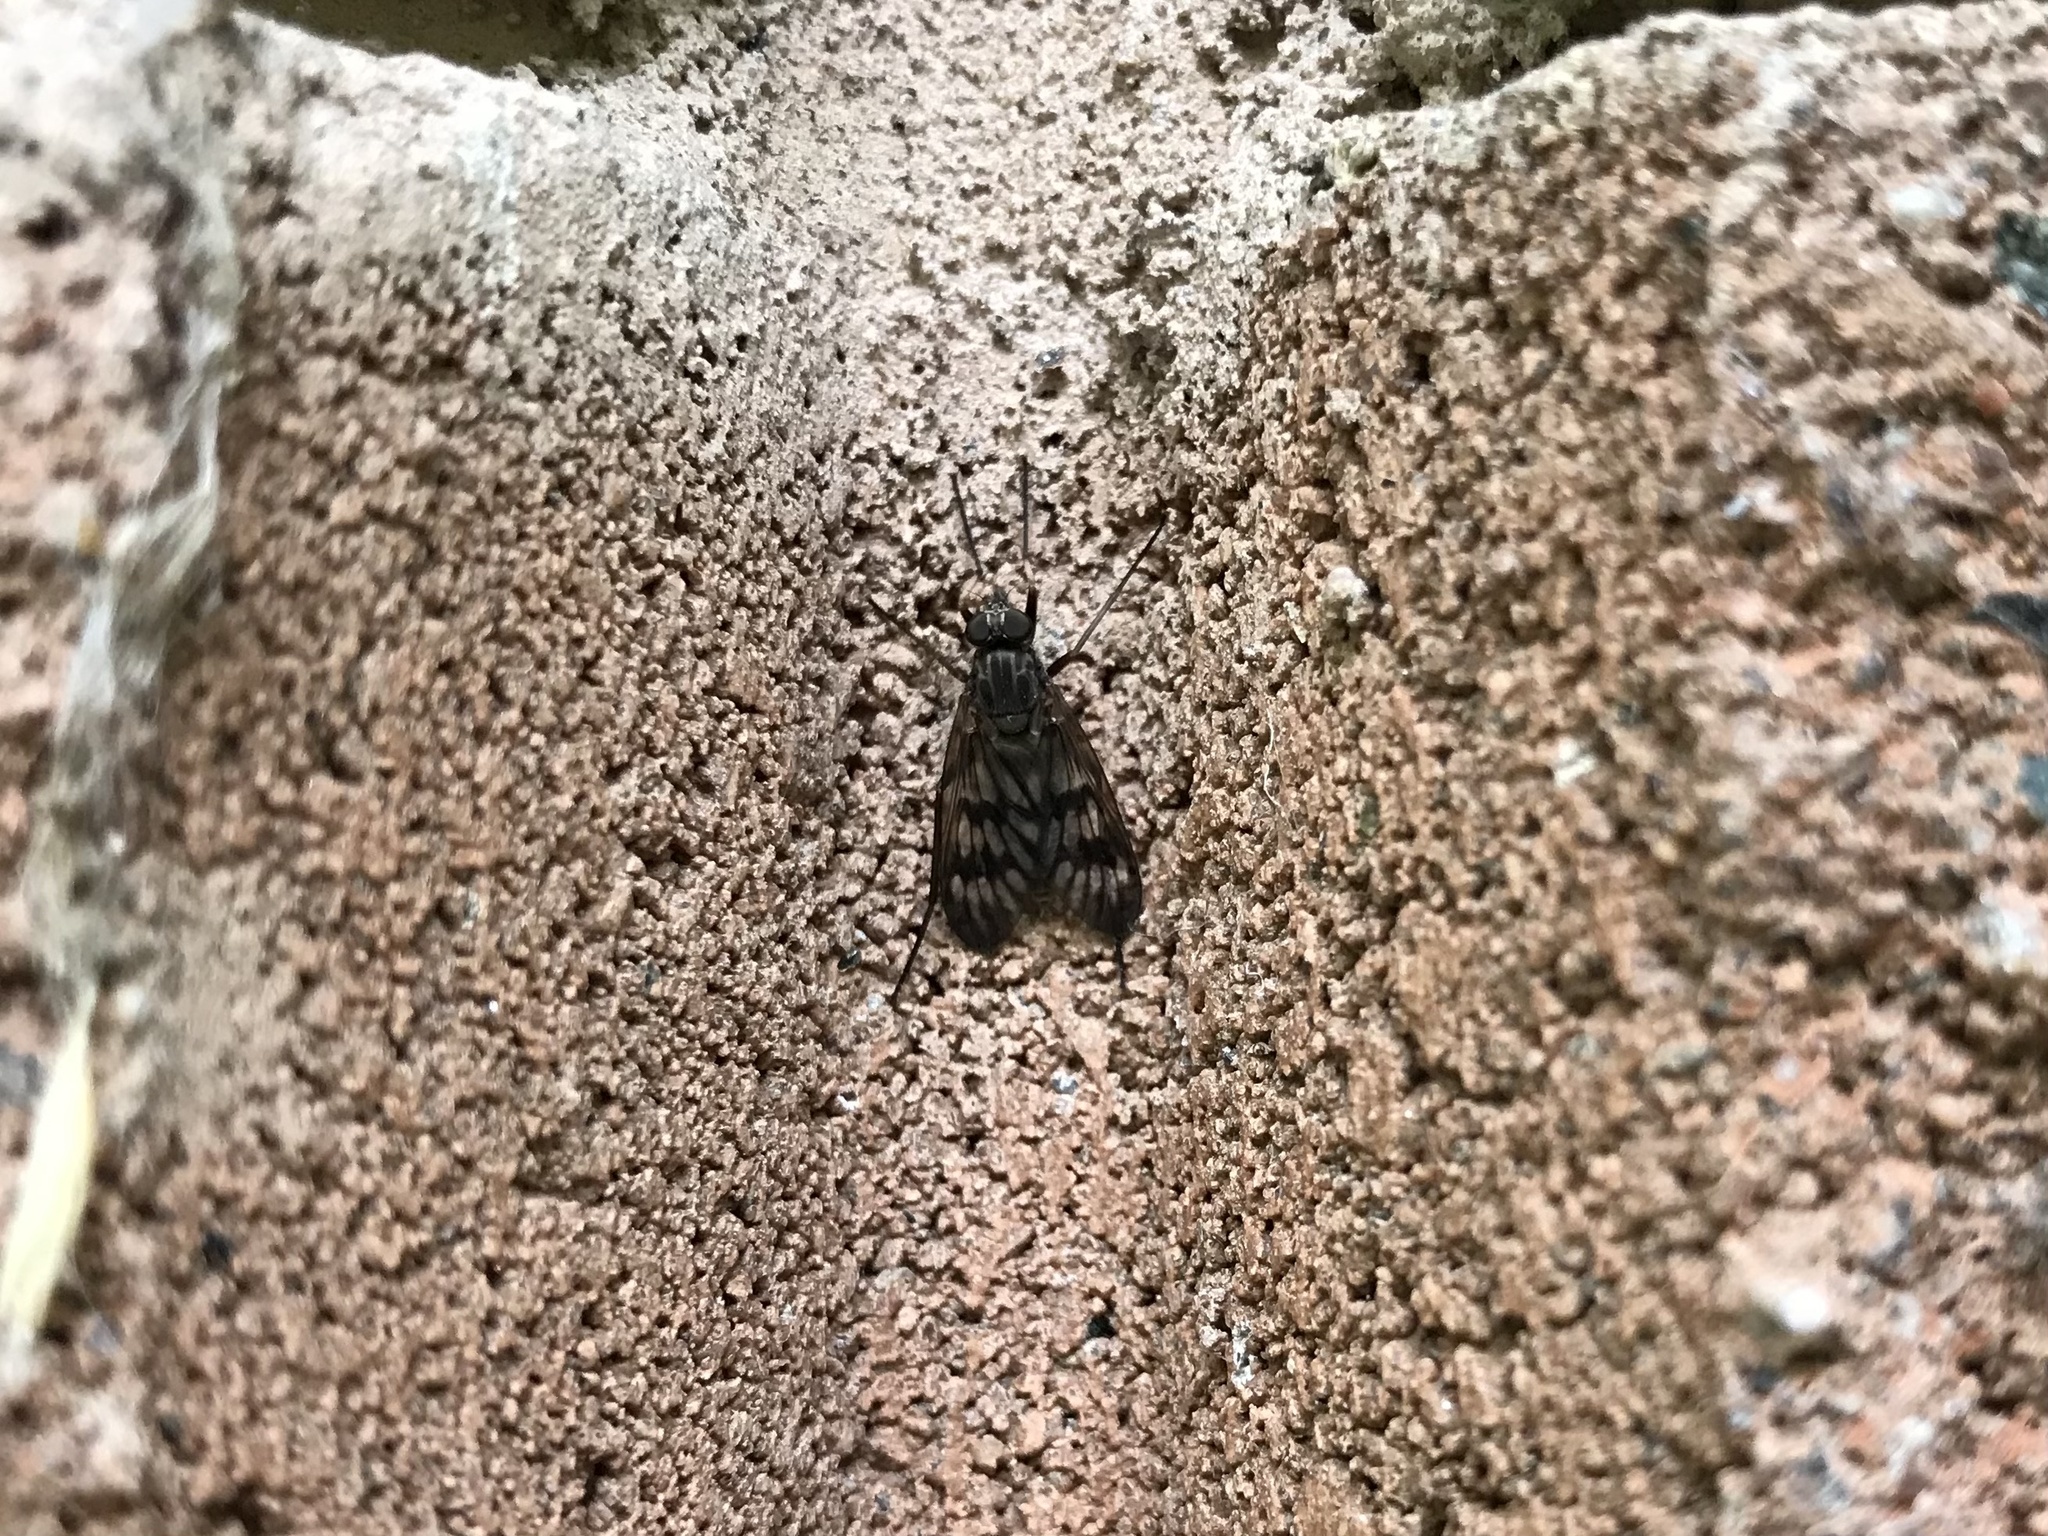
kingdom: Animalia
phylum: Arthropoda
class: Insecta
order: Diptera
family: Rhagionidae
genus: Rhagio
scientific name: Rhagio mystaceus
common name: Common snipe fly
